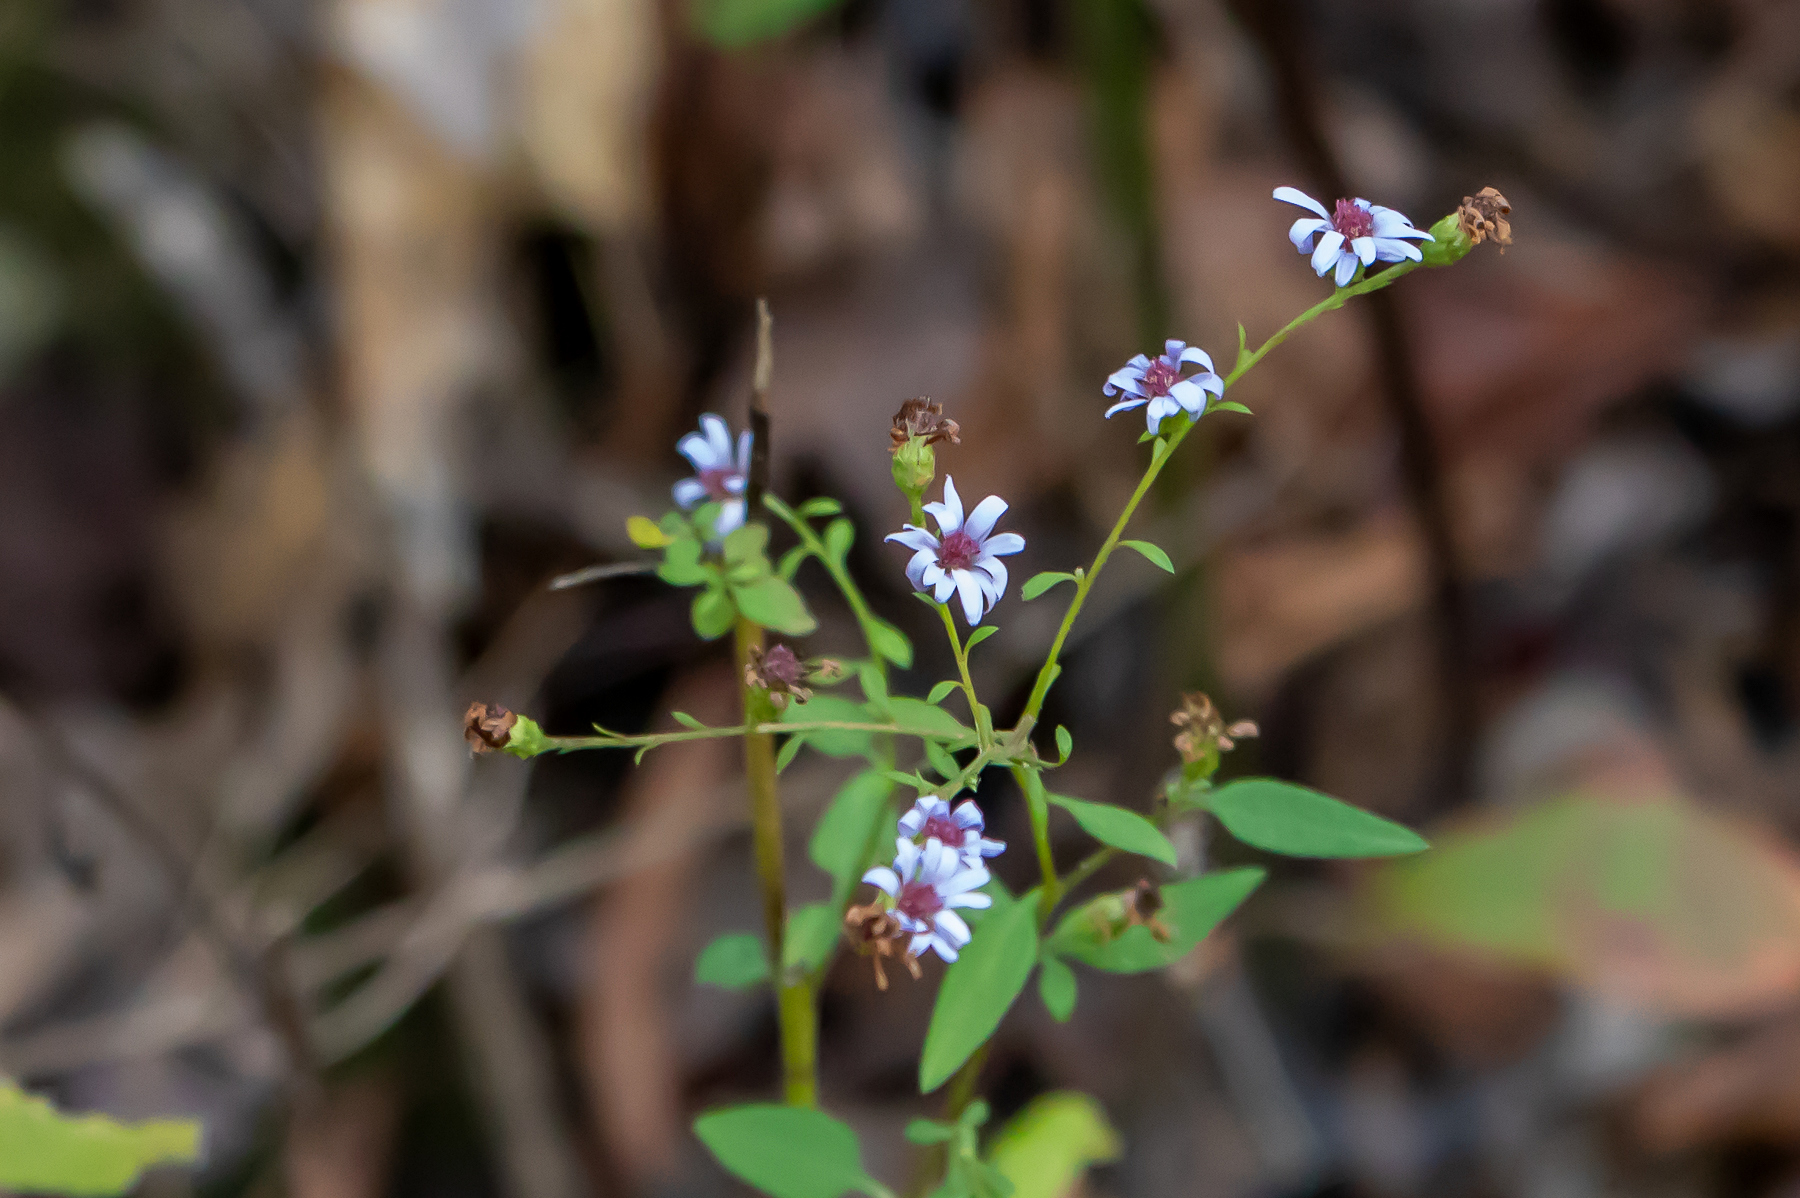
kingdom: Plantae
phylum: Tracheophyta
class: Magnoliopsida
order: Asterales
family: Asteraceae
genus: Symphyotrichum
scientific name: Symphyotrichum oolentangiense
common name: Azure aster
